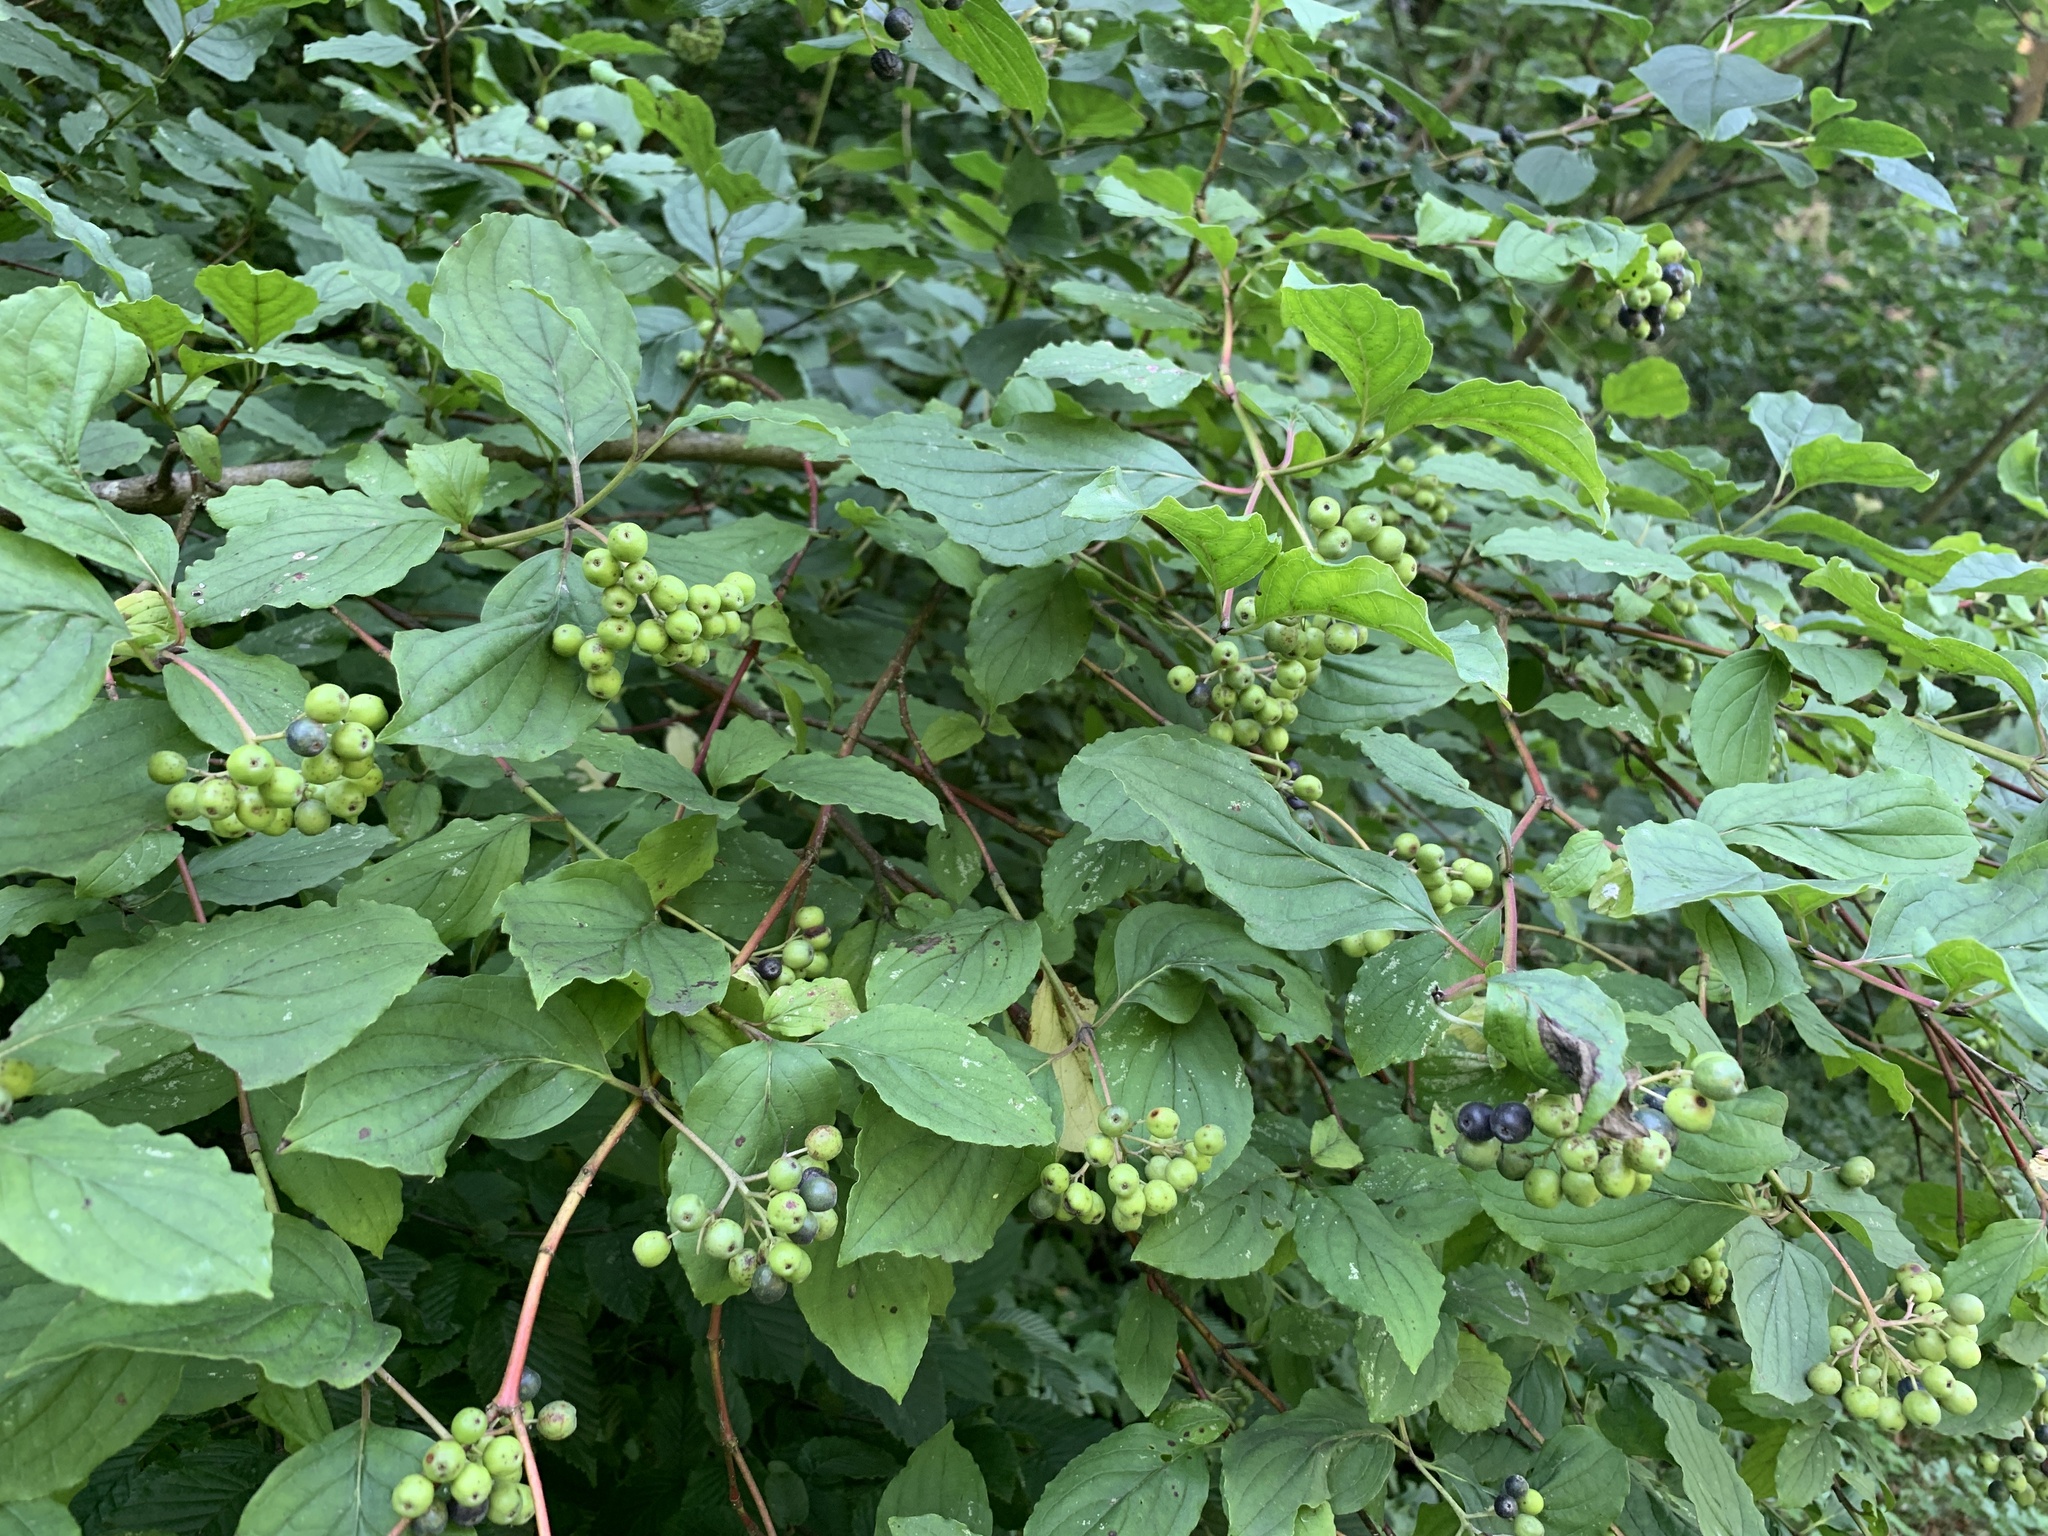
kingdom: Plantae
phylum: Tracheophyta
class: Magnoliopsida
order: Cornales
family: Cornaceae
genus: Cornus
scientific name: Cornus sanguinea
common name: Dogwood
